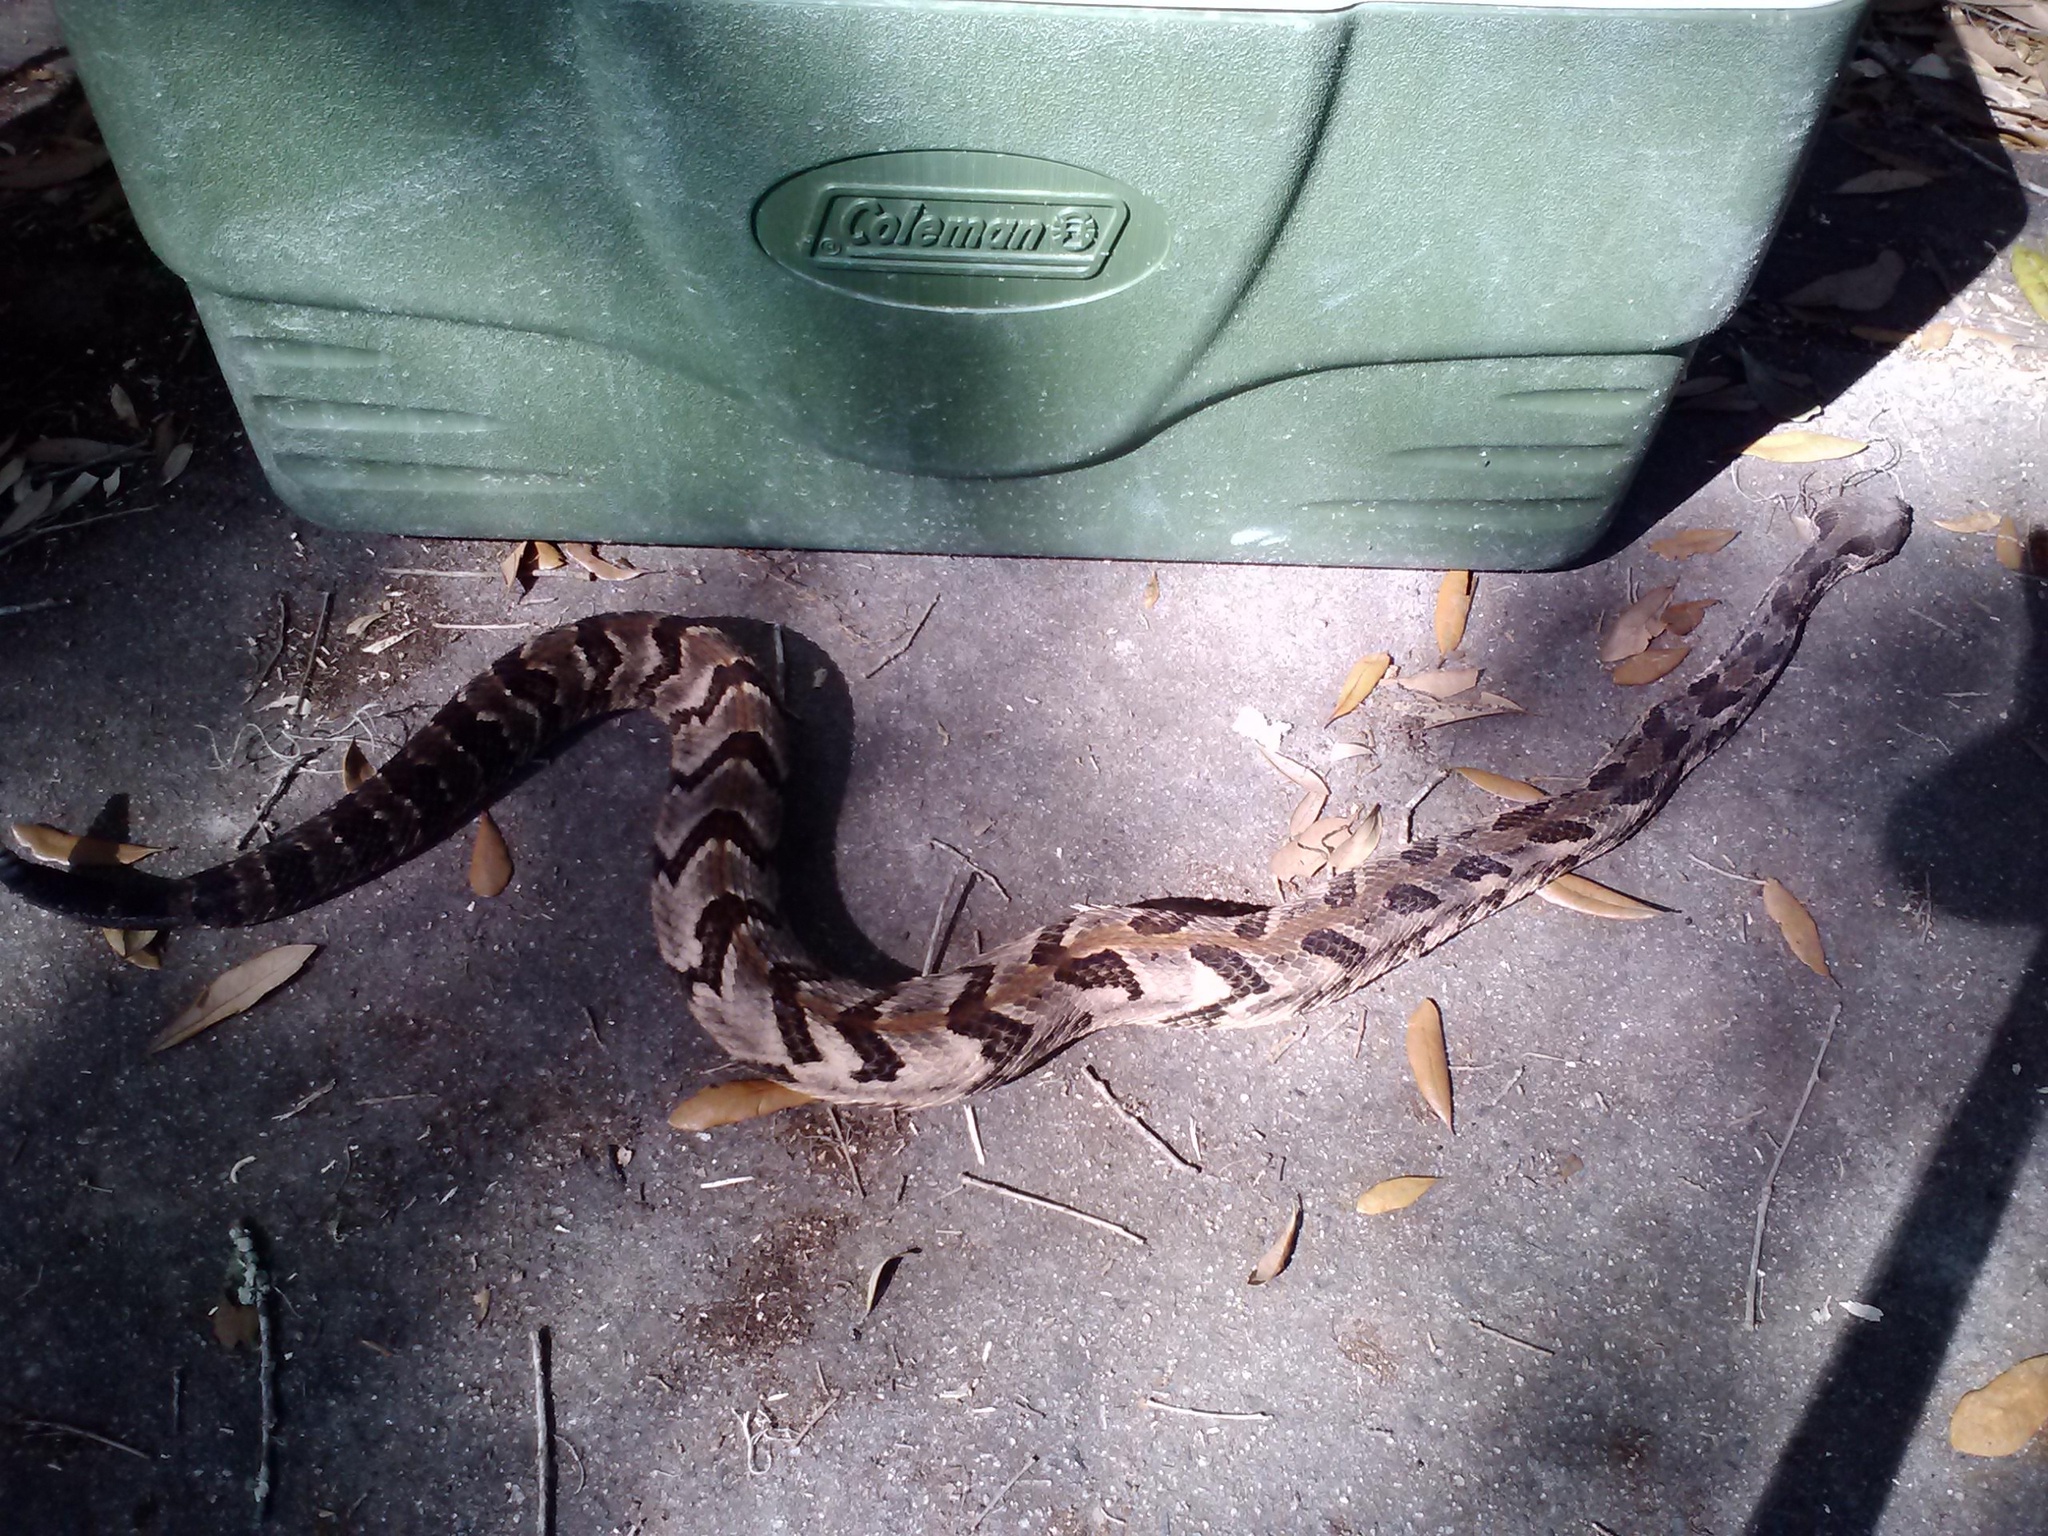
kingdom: Animalia
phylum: Chordata
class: Squamata
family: Viperidae
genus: Crotalus
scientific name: Crotalus horridus
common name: Timber rattlesnake
